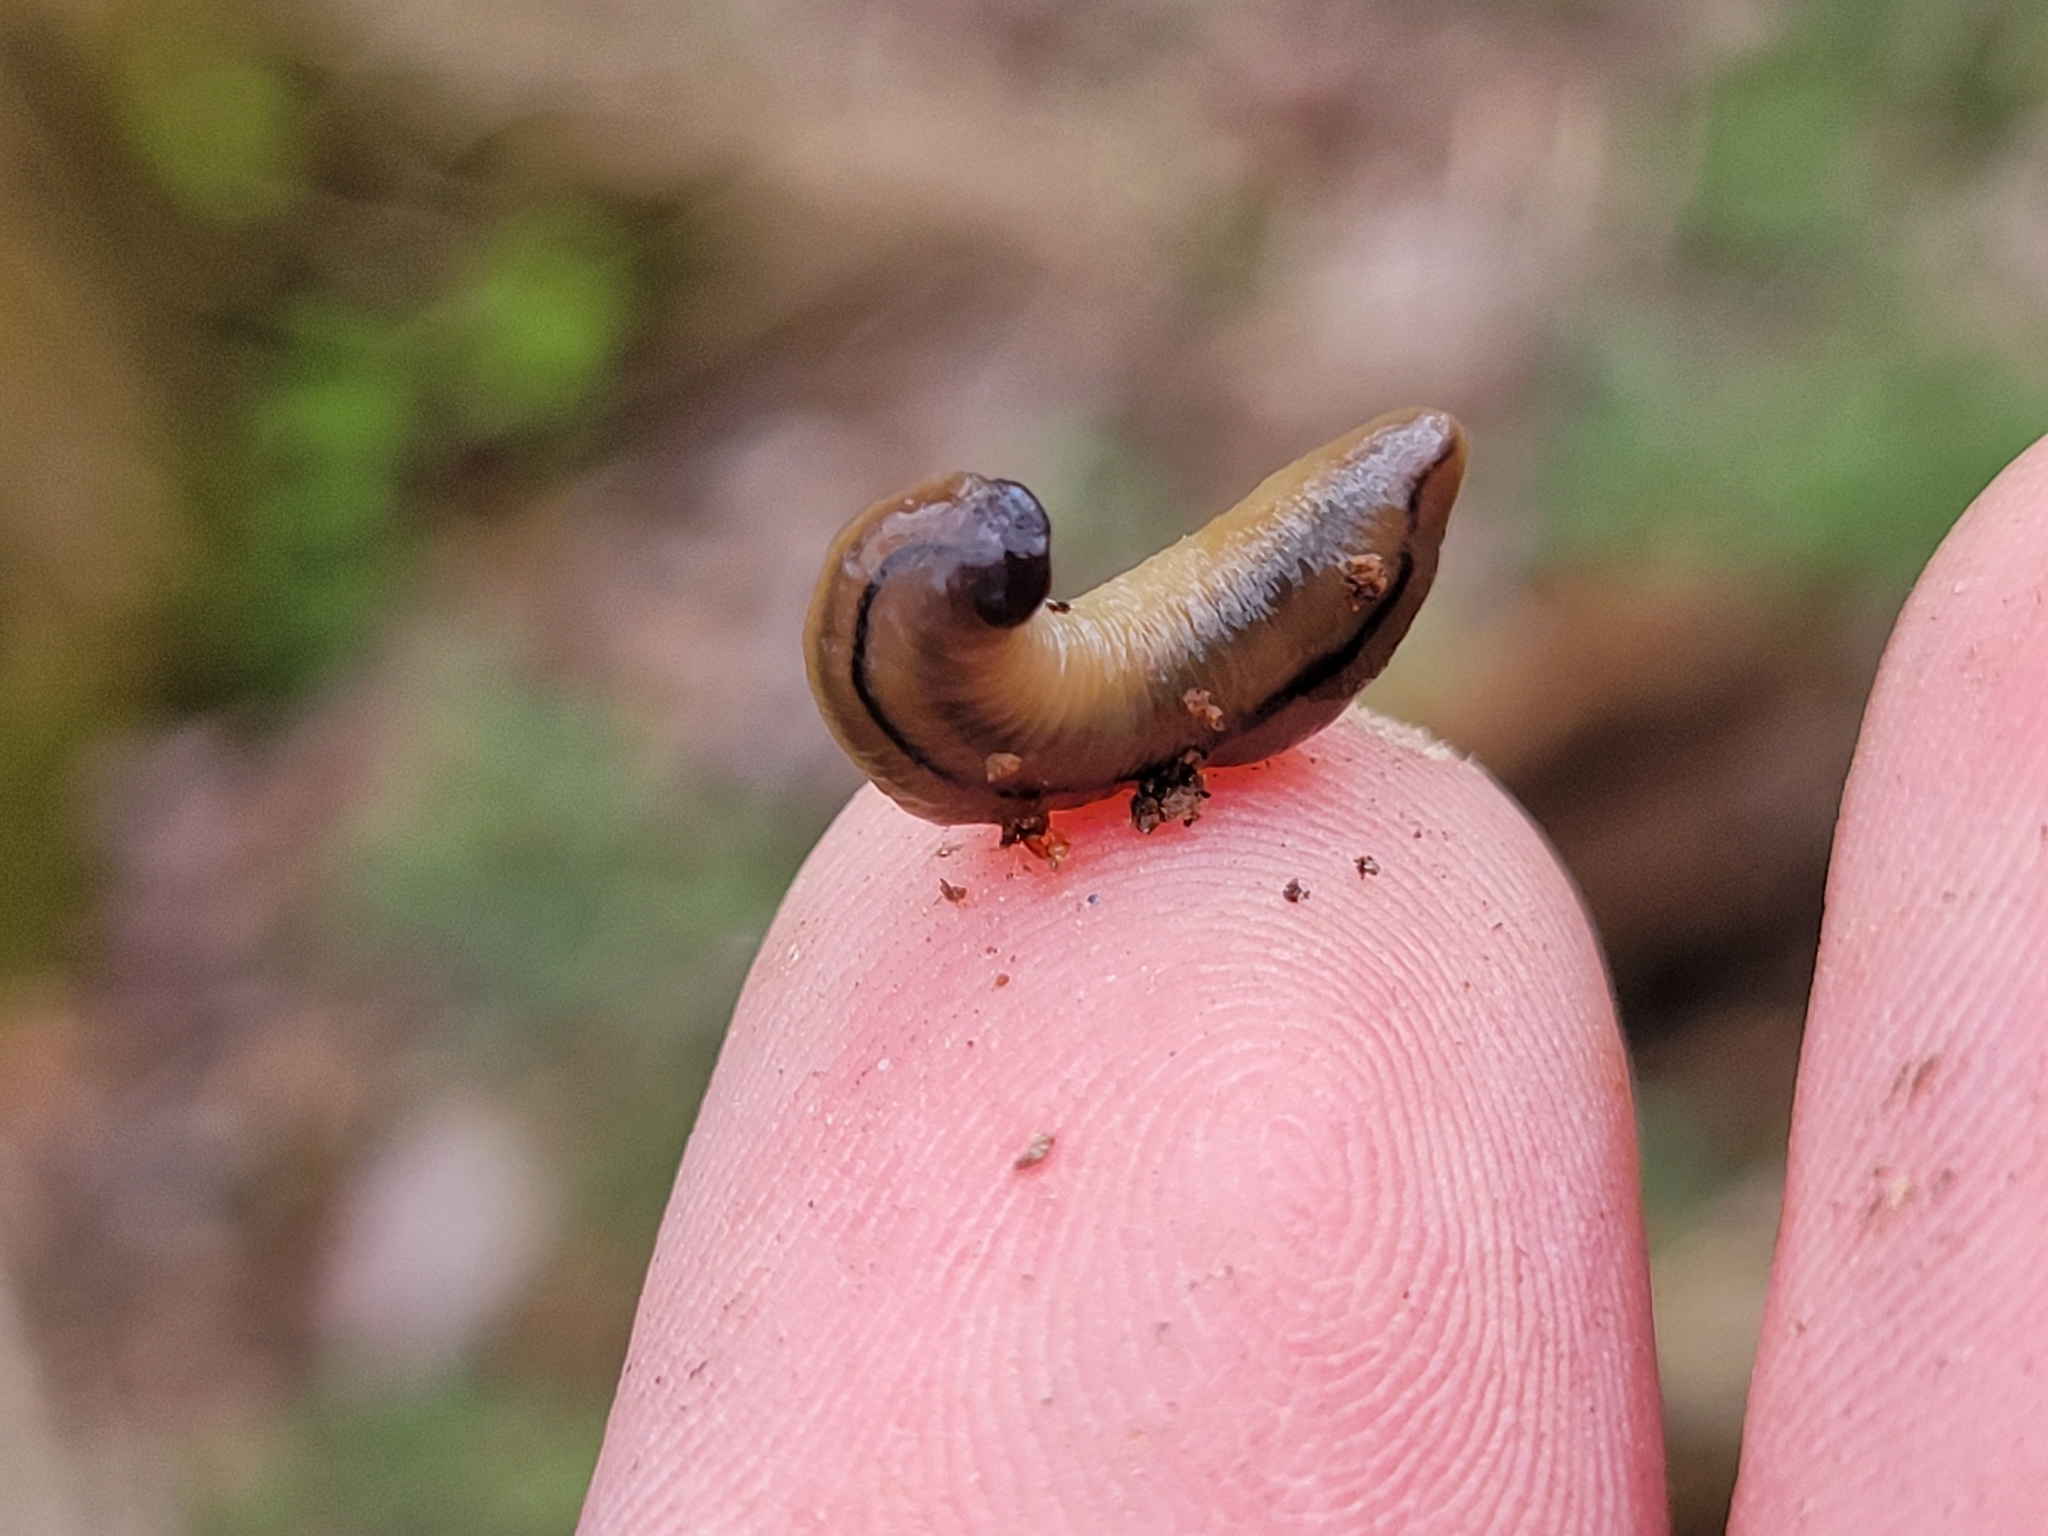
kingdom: Animalia
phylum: Platyhelminthes
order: Tricladida
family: Geoplanidae
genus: Bipalium
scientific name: Bipalium pennsylvanicum
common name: Three-lined land planarian
